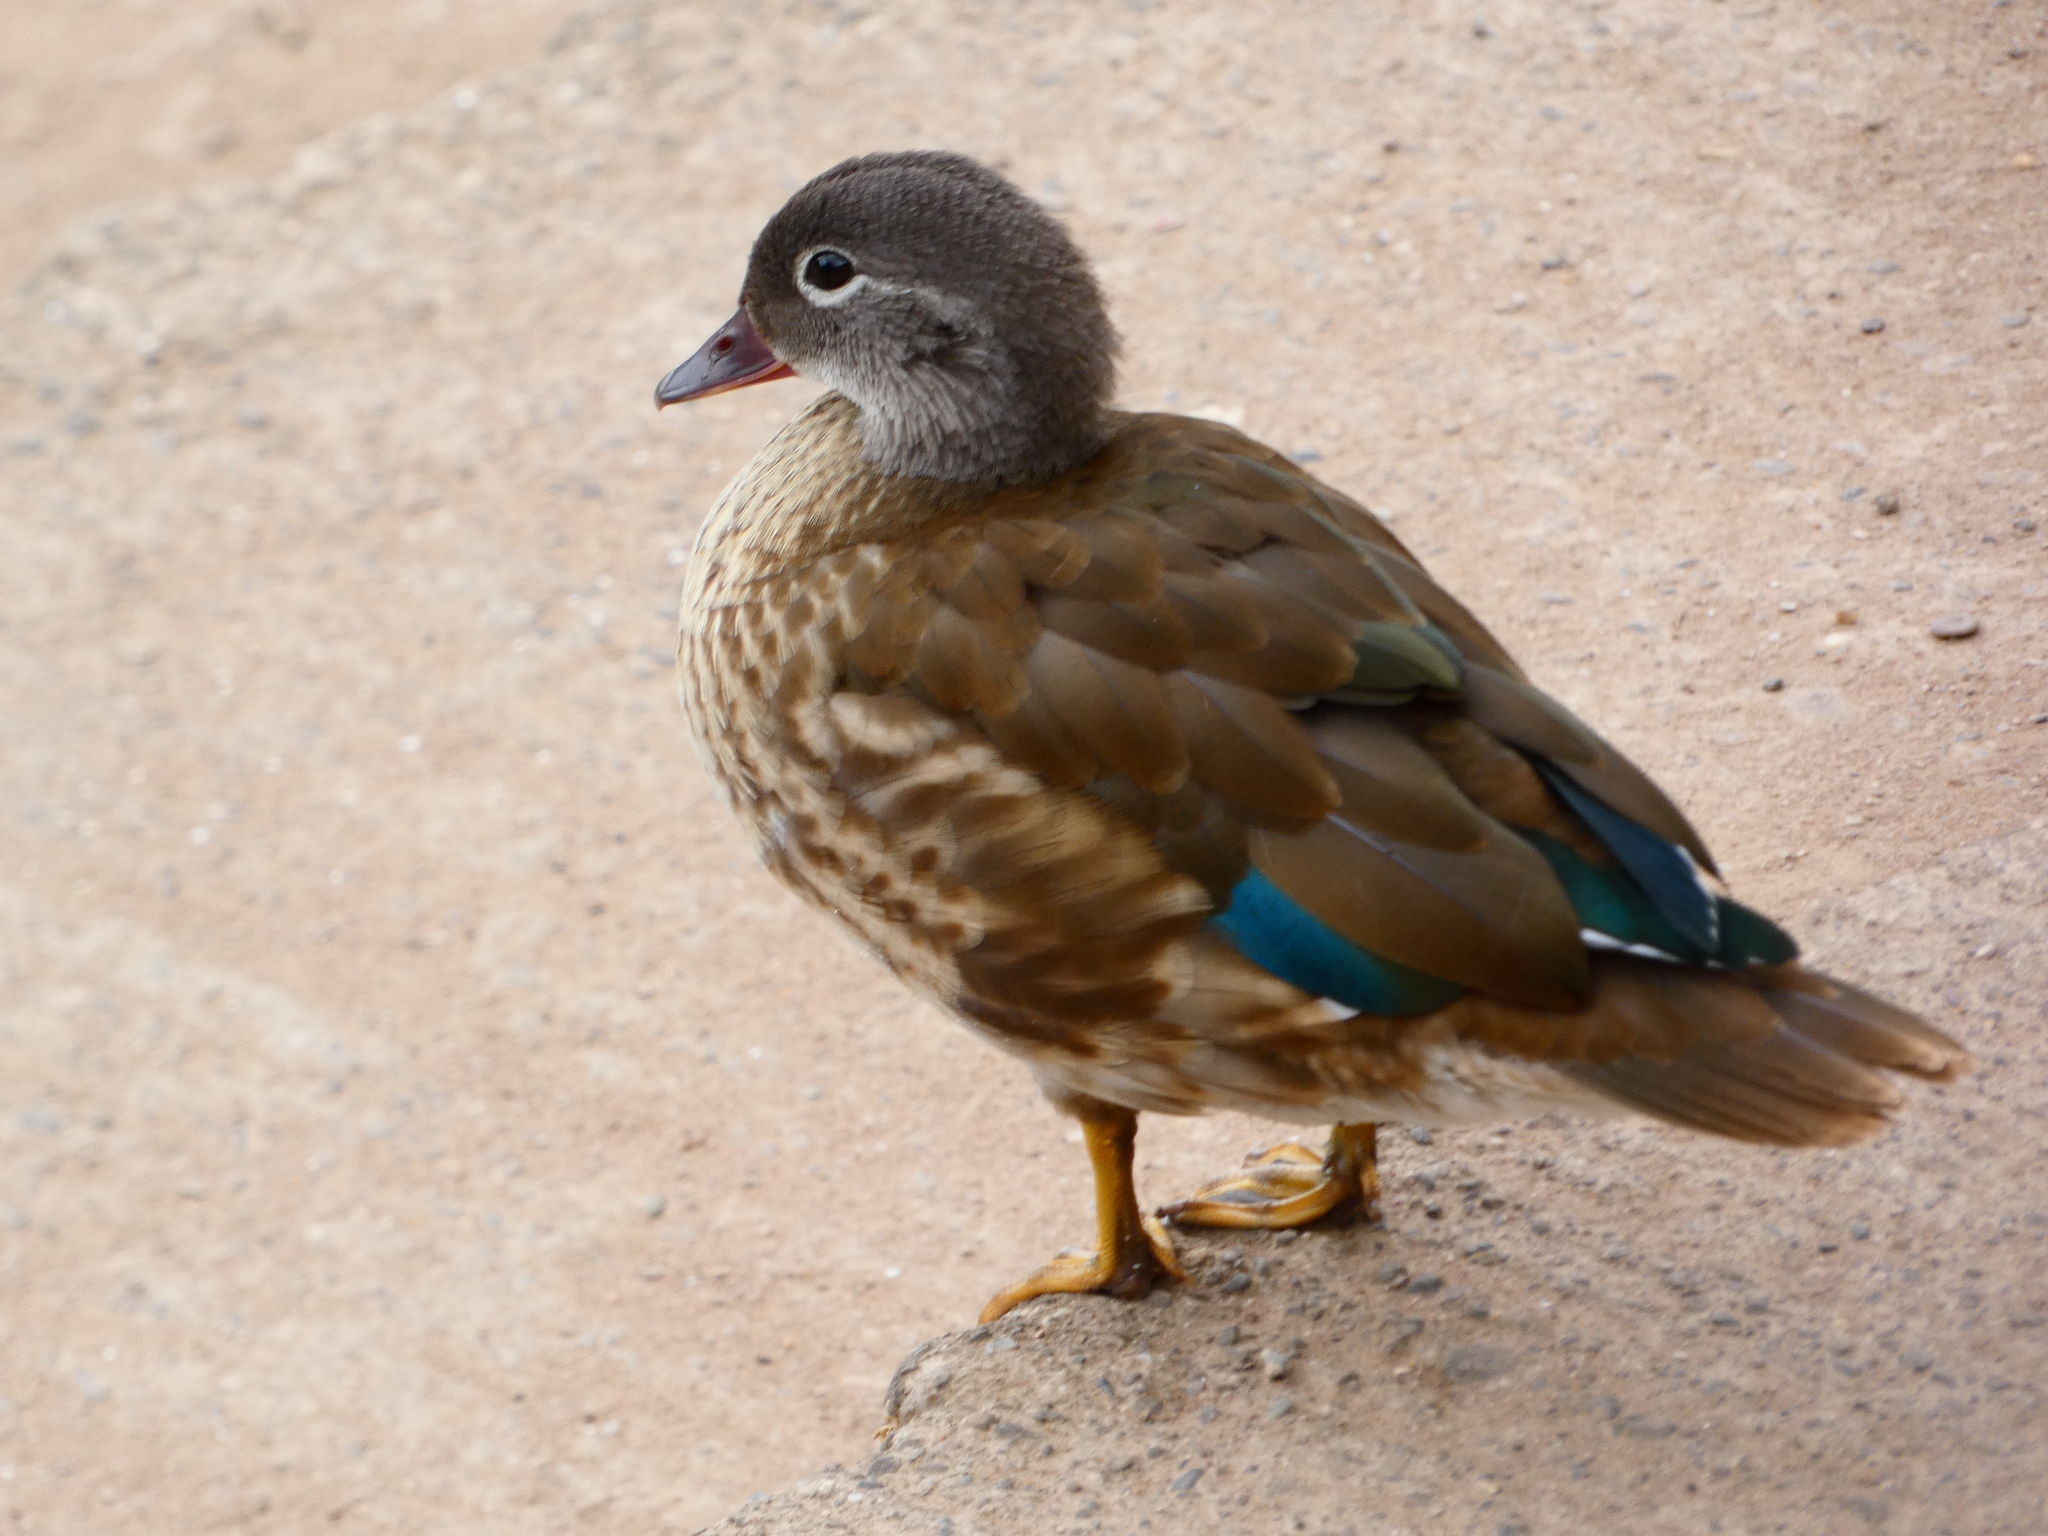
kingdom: Animalia
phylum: Chordata
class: Aves
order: Anseriformes
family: Anatidae
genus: Aix
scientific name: Aix galericulata
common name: Mandarin duck
